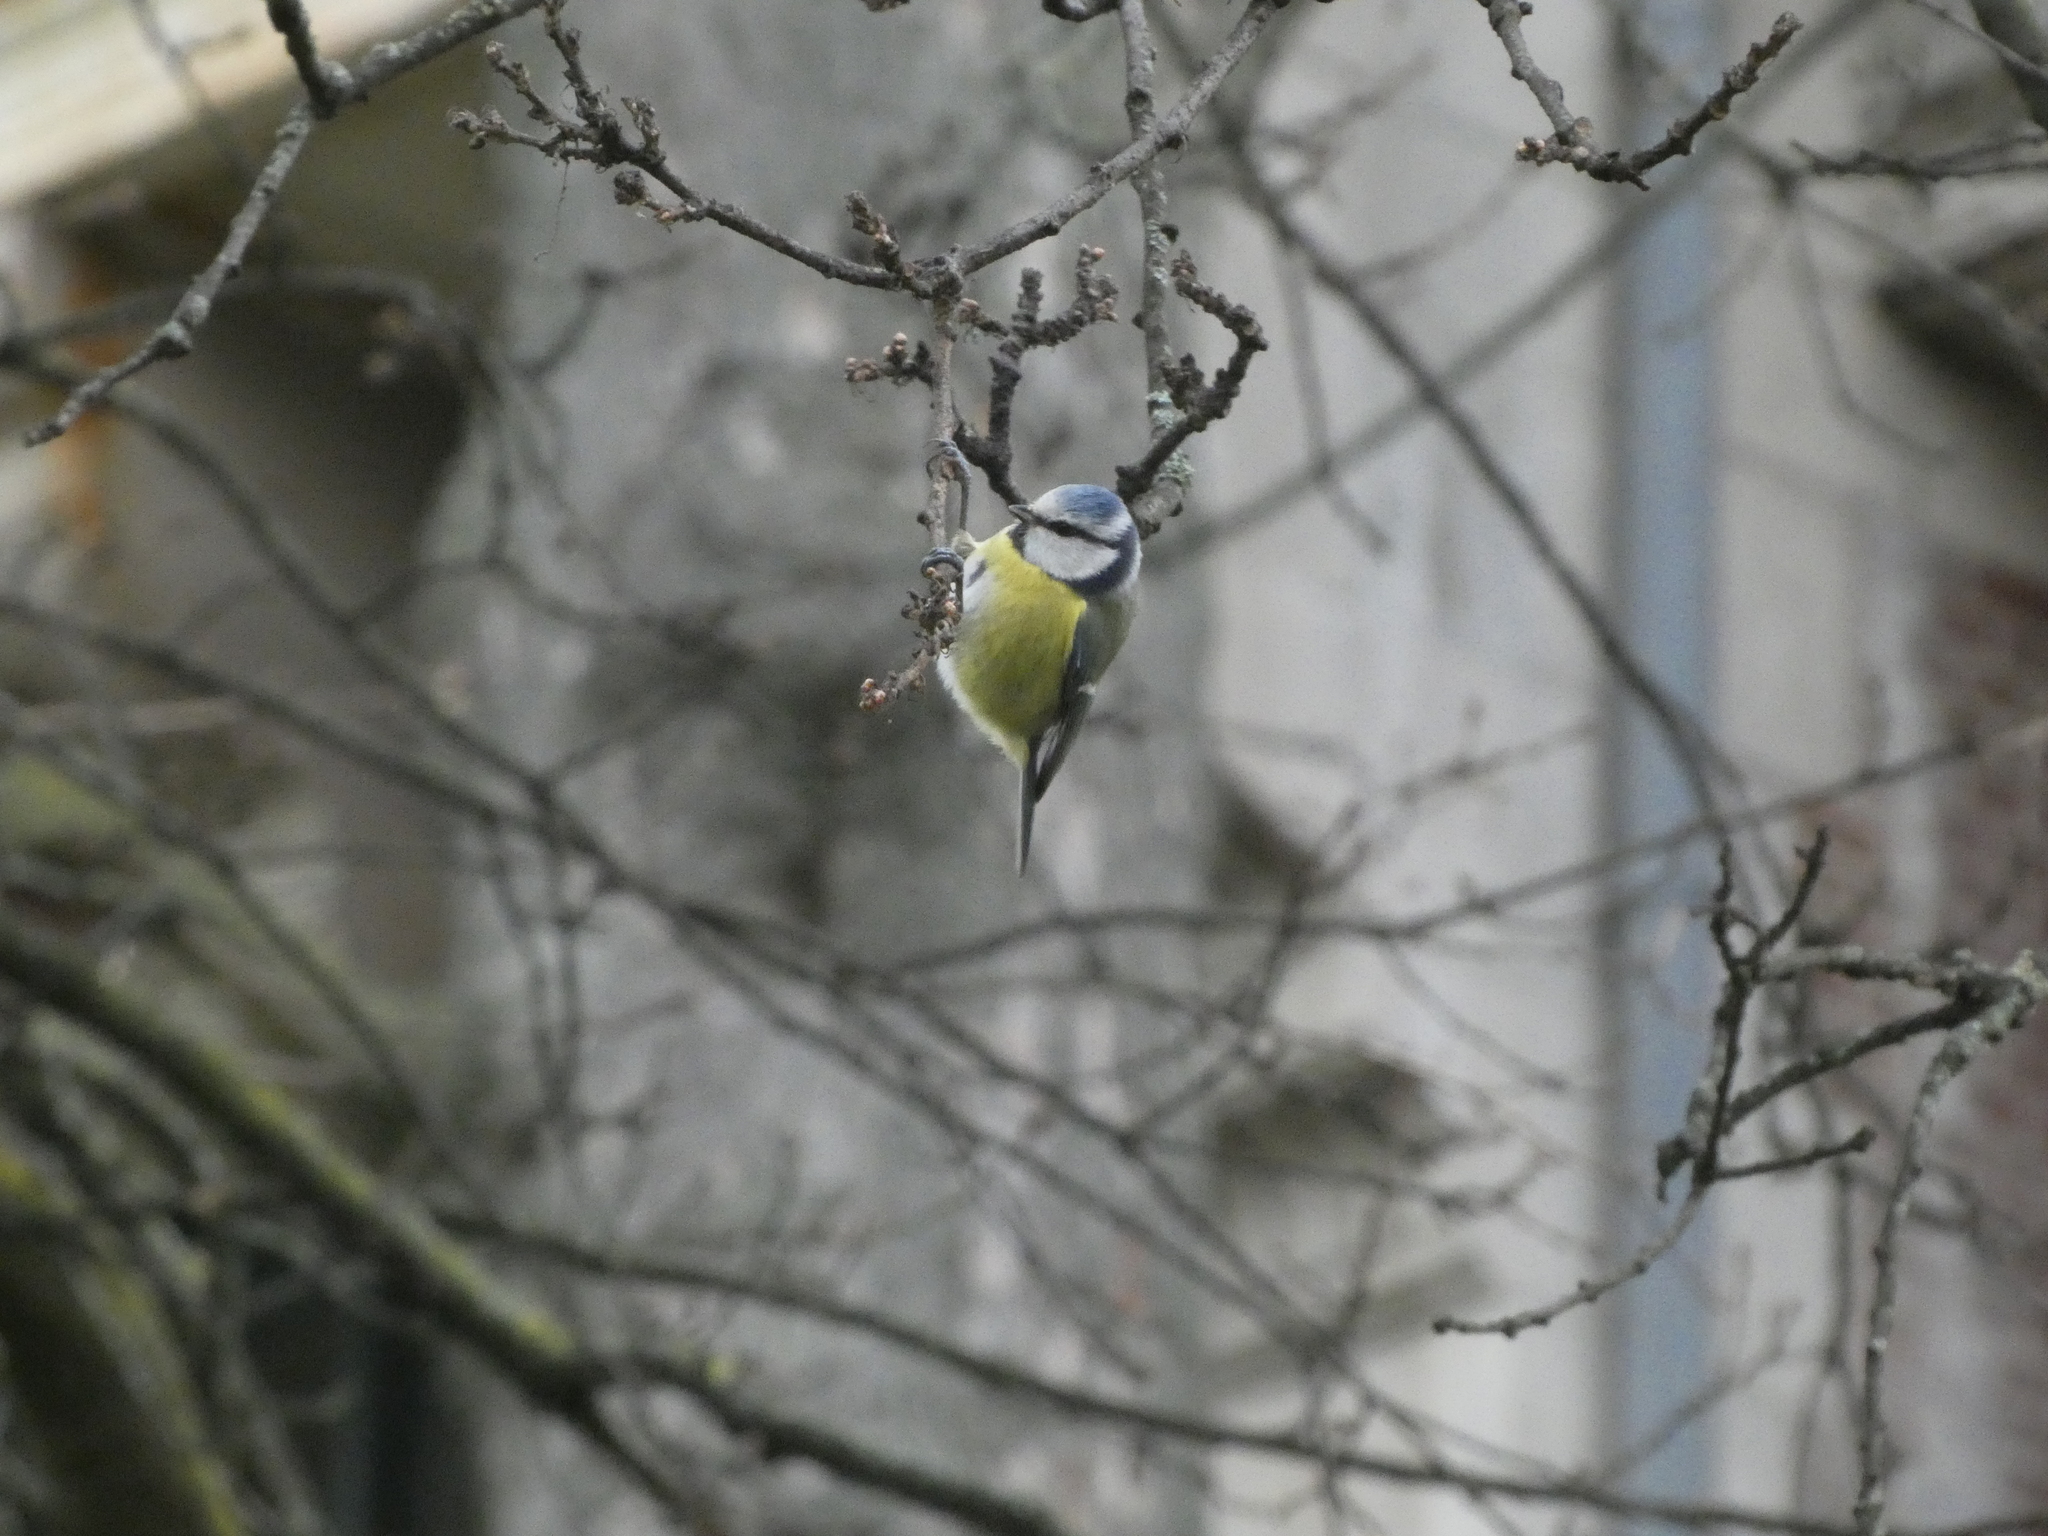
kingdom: Animalia
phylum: Chordata
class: Aves
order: Passeriformes
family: Paridae
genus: Cyanistes
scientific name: Cyanistes caeruleus
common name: Eurasian blue tit
